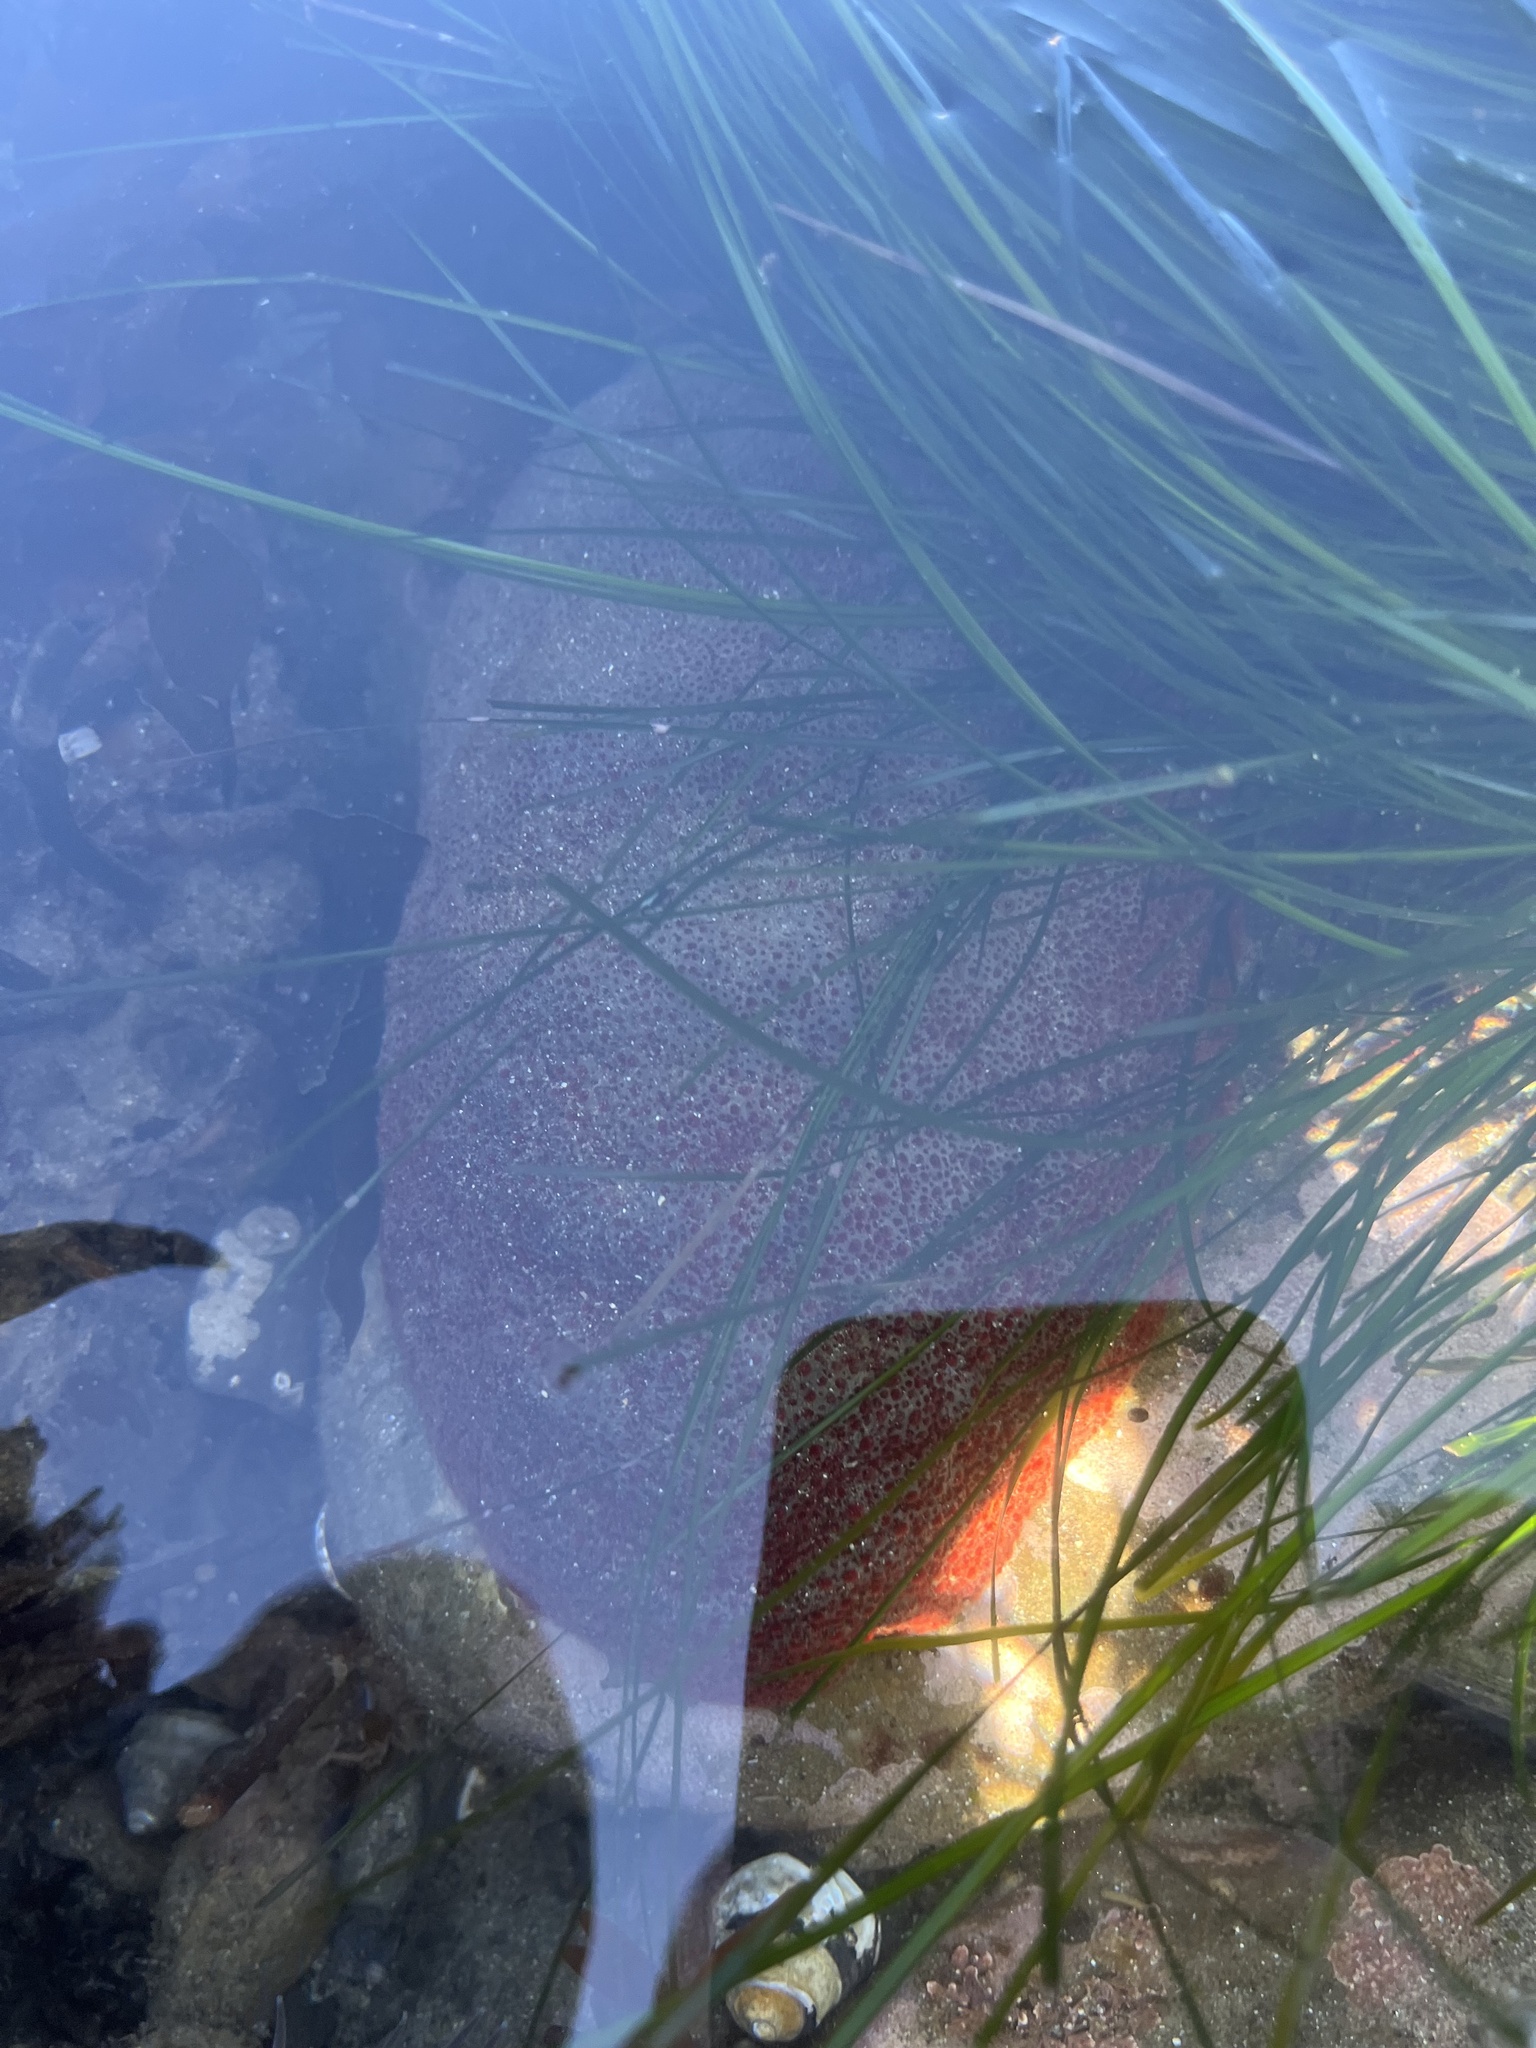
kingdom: Animalia
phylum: Mollusca
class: Polyplacophora
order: Chitonida
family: Acanthochitonidae
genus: Cryptochiton
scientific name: Cryptochiton stelleri
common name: Giant pacific chiton
